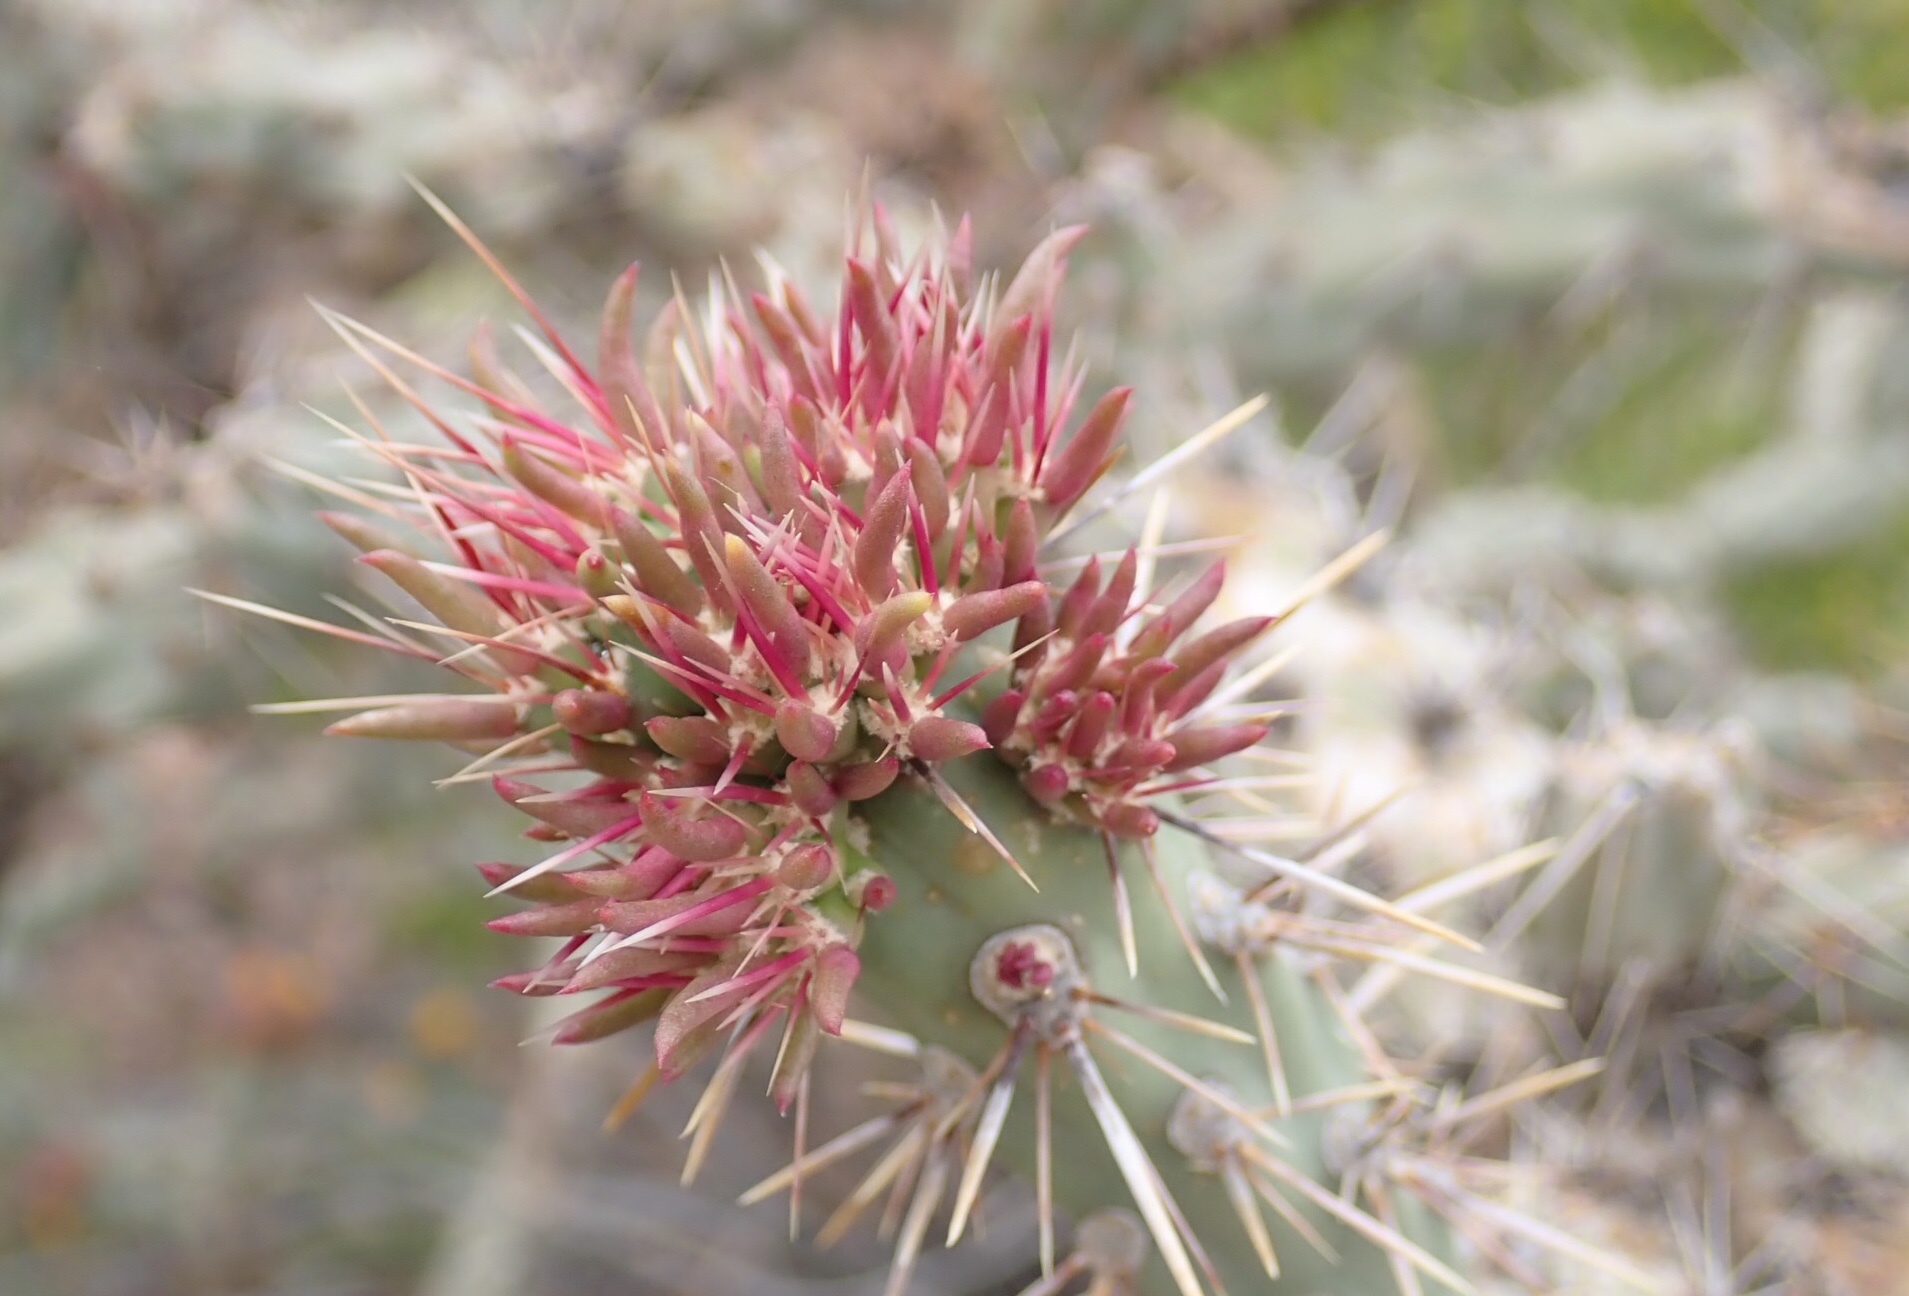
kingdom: Plantae
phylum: Tracheophyta
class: Magnoliopsida
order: Caryophyllales
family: Cactaceae
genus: Cylindropuntia
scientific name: Cylindropuntia acanthocarpa
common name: Buckhorn cholla
